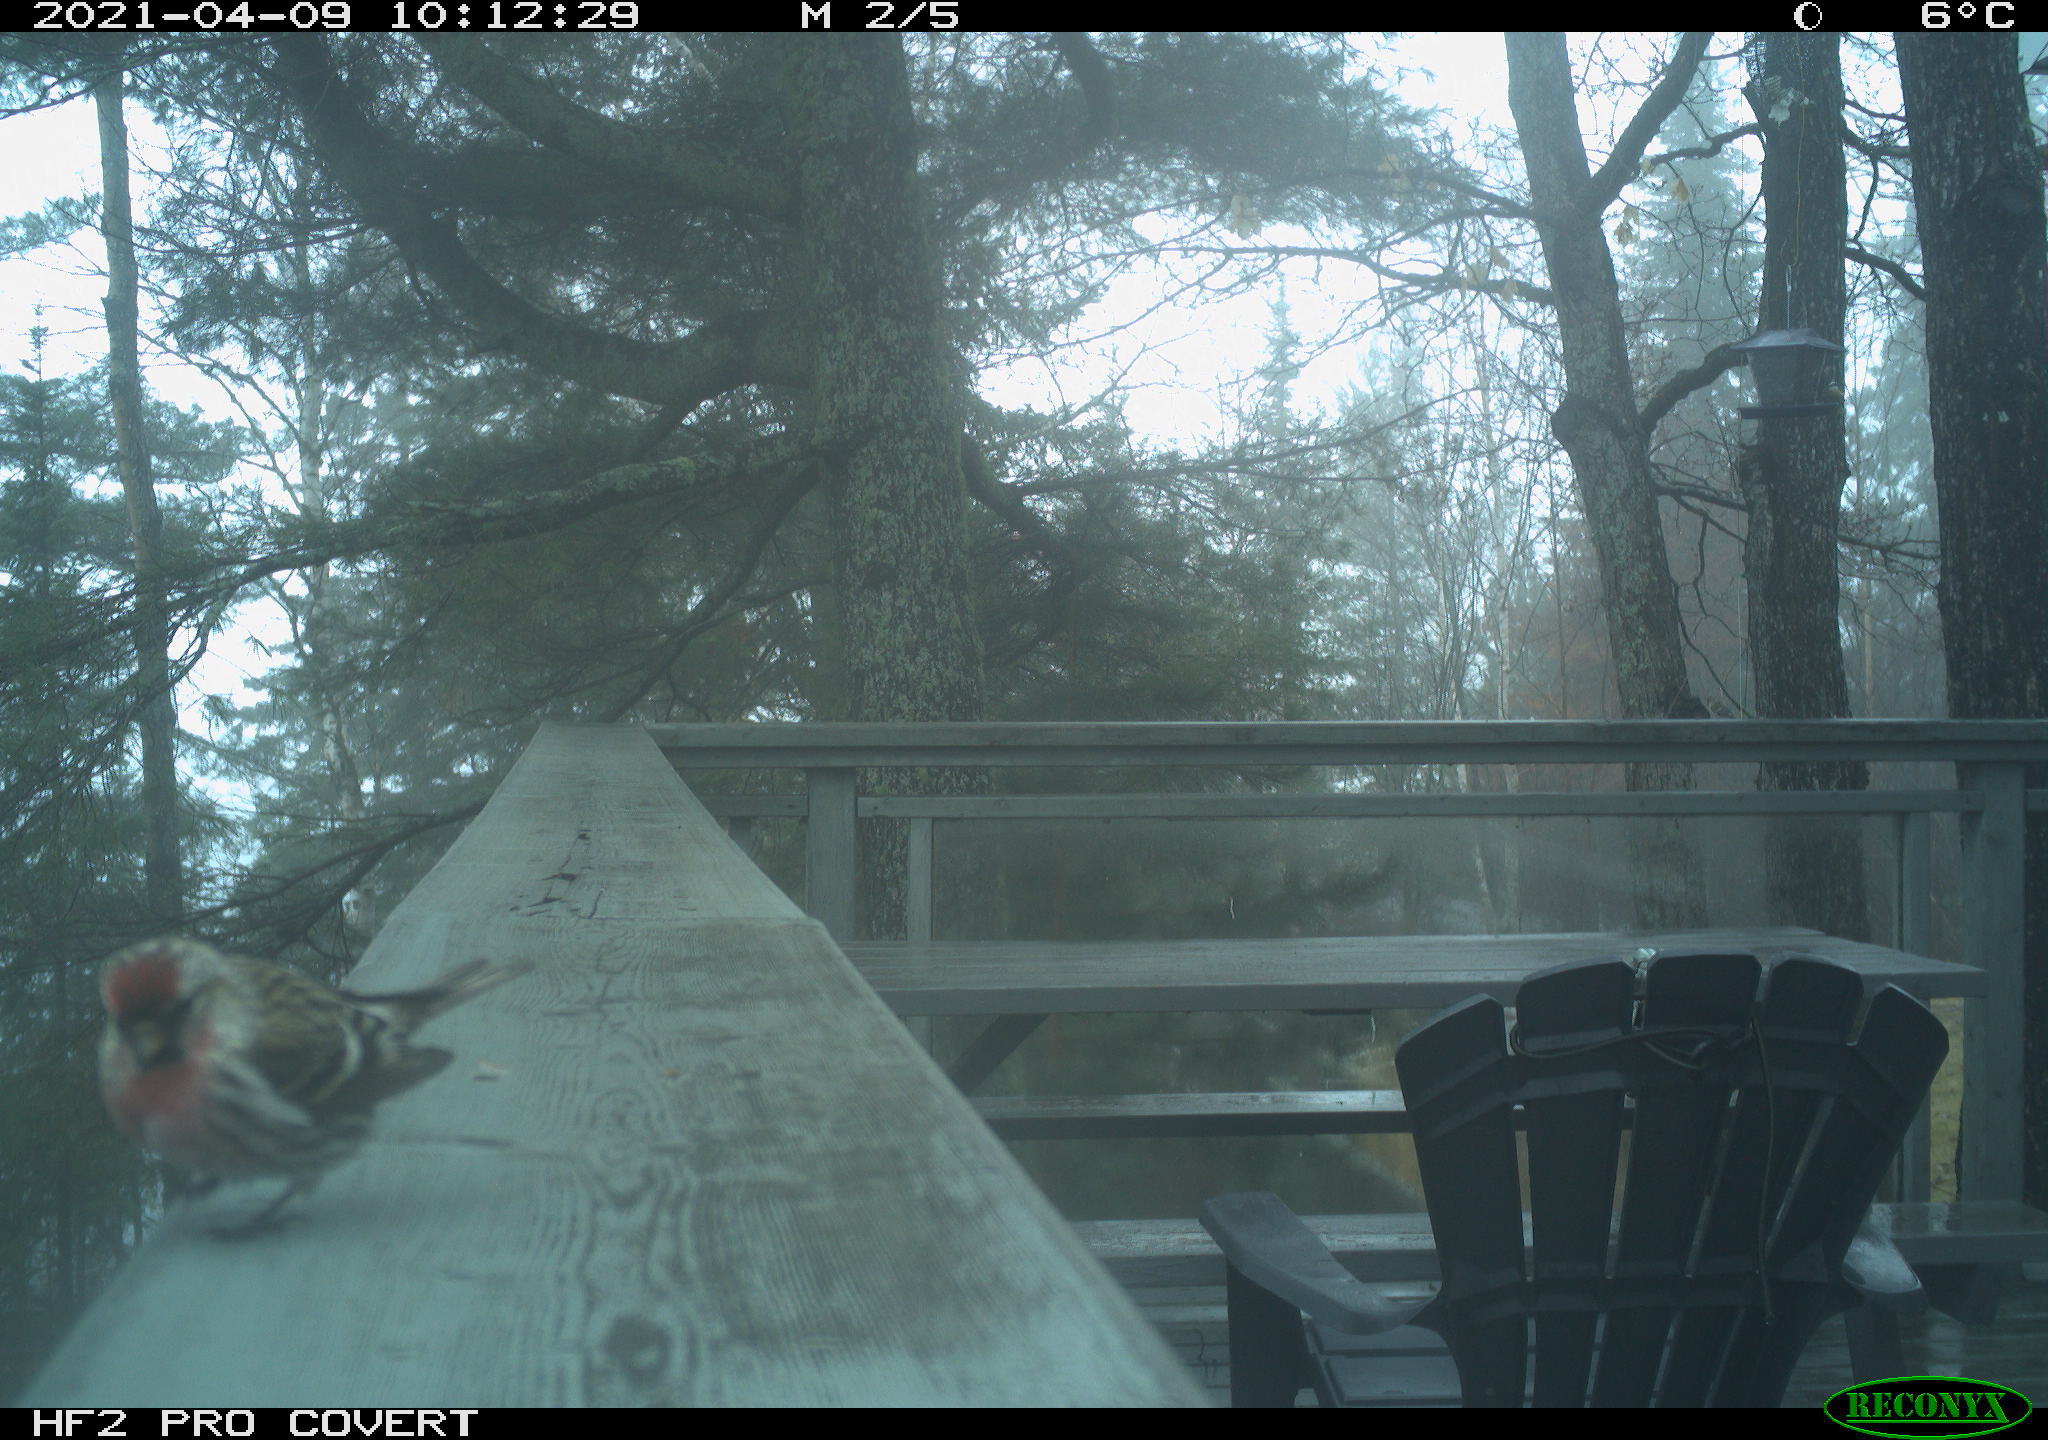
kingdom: Animalia
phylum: Chordata
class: Aves
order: Passeriformes
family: Fringillidae
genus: Acanthis
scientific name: Acanthis flammea
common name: Common redpoll
